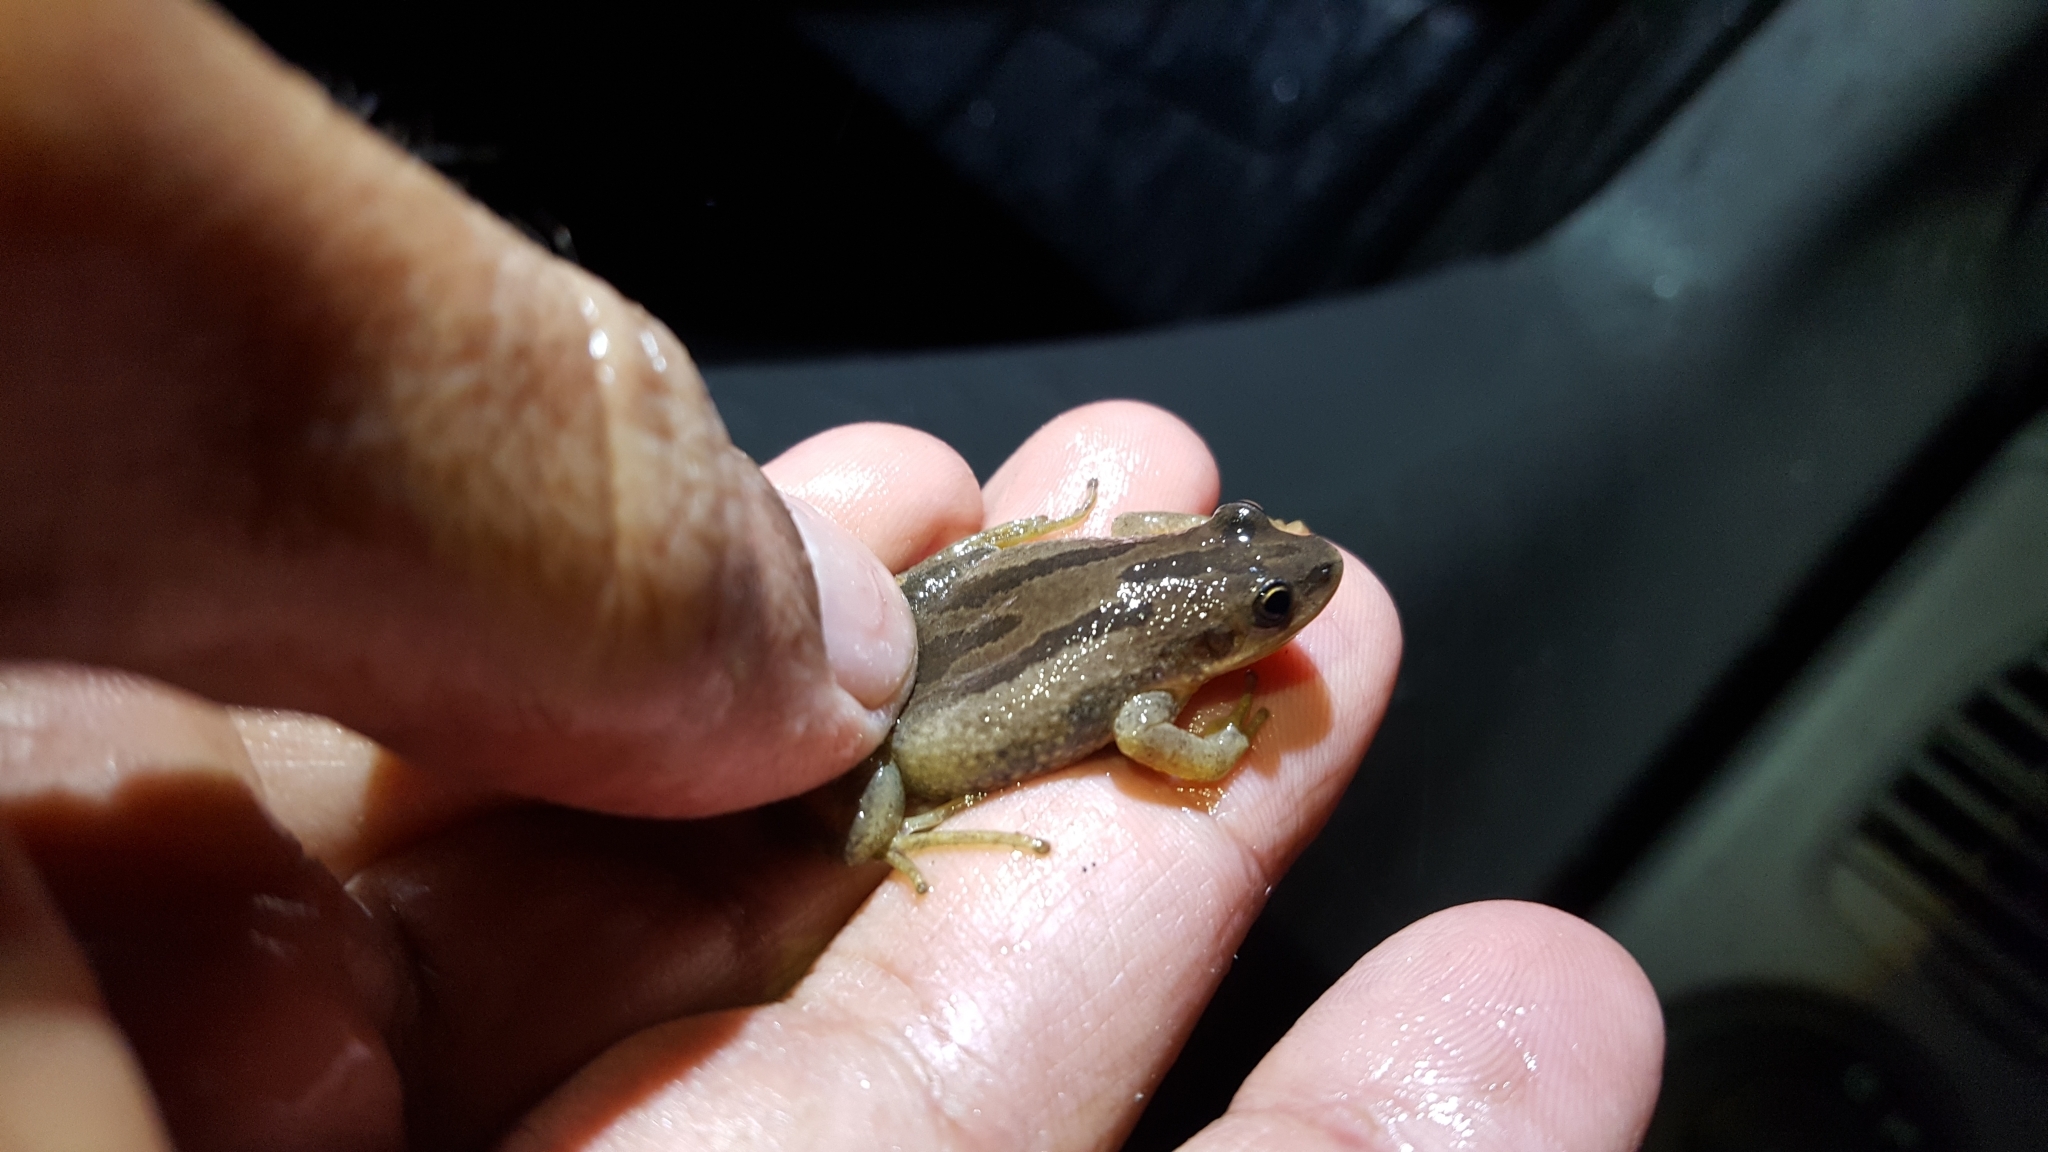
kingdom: Animalia
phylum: Chordata
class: Amphibia
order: Anura
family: Hylidae
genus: Pseudacris
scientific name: Pseudacris fouquettei
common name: Cajun chorus frog
